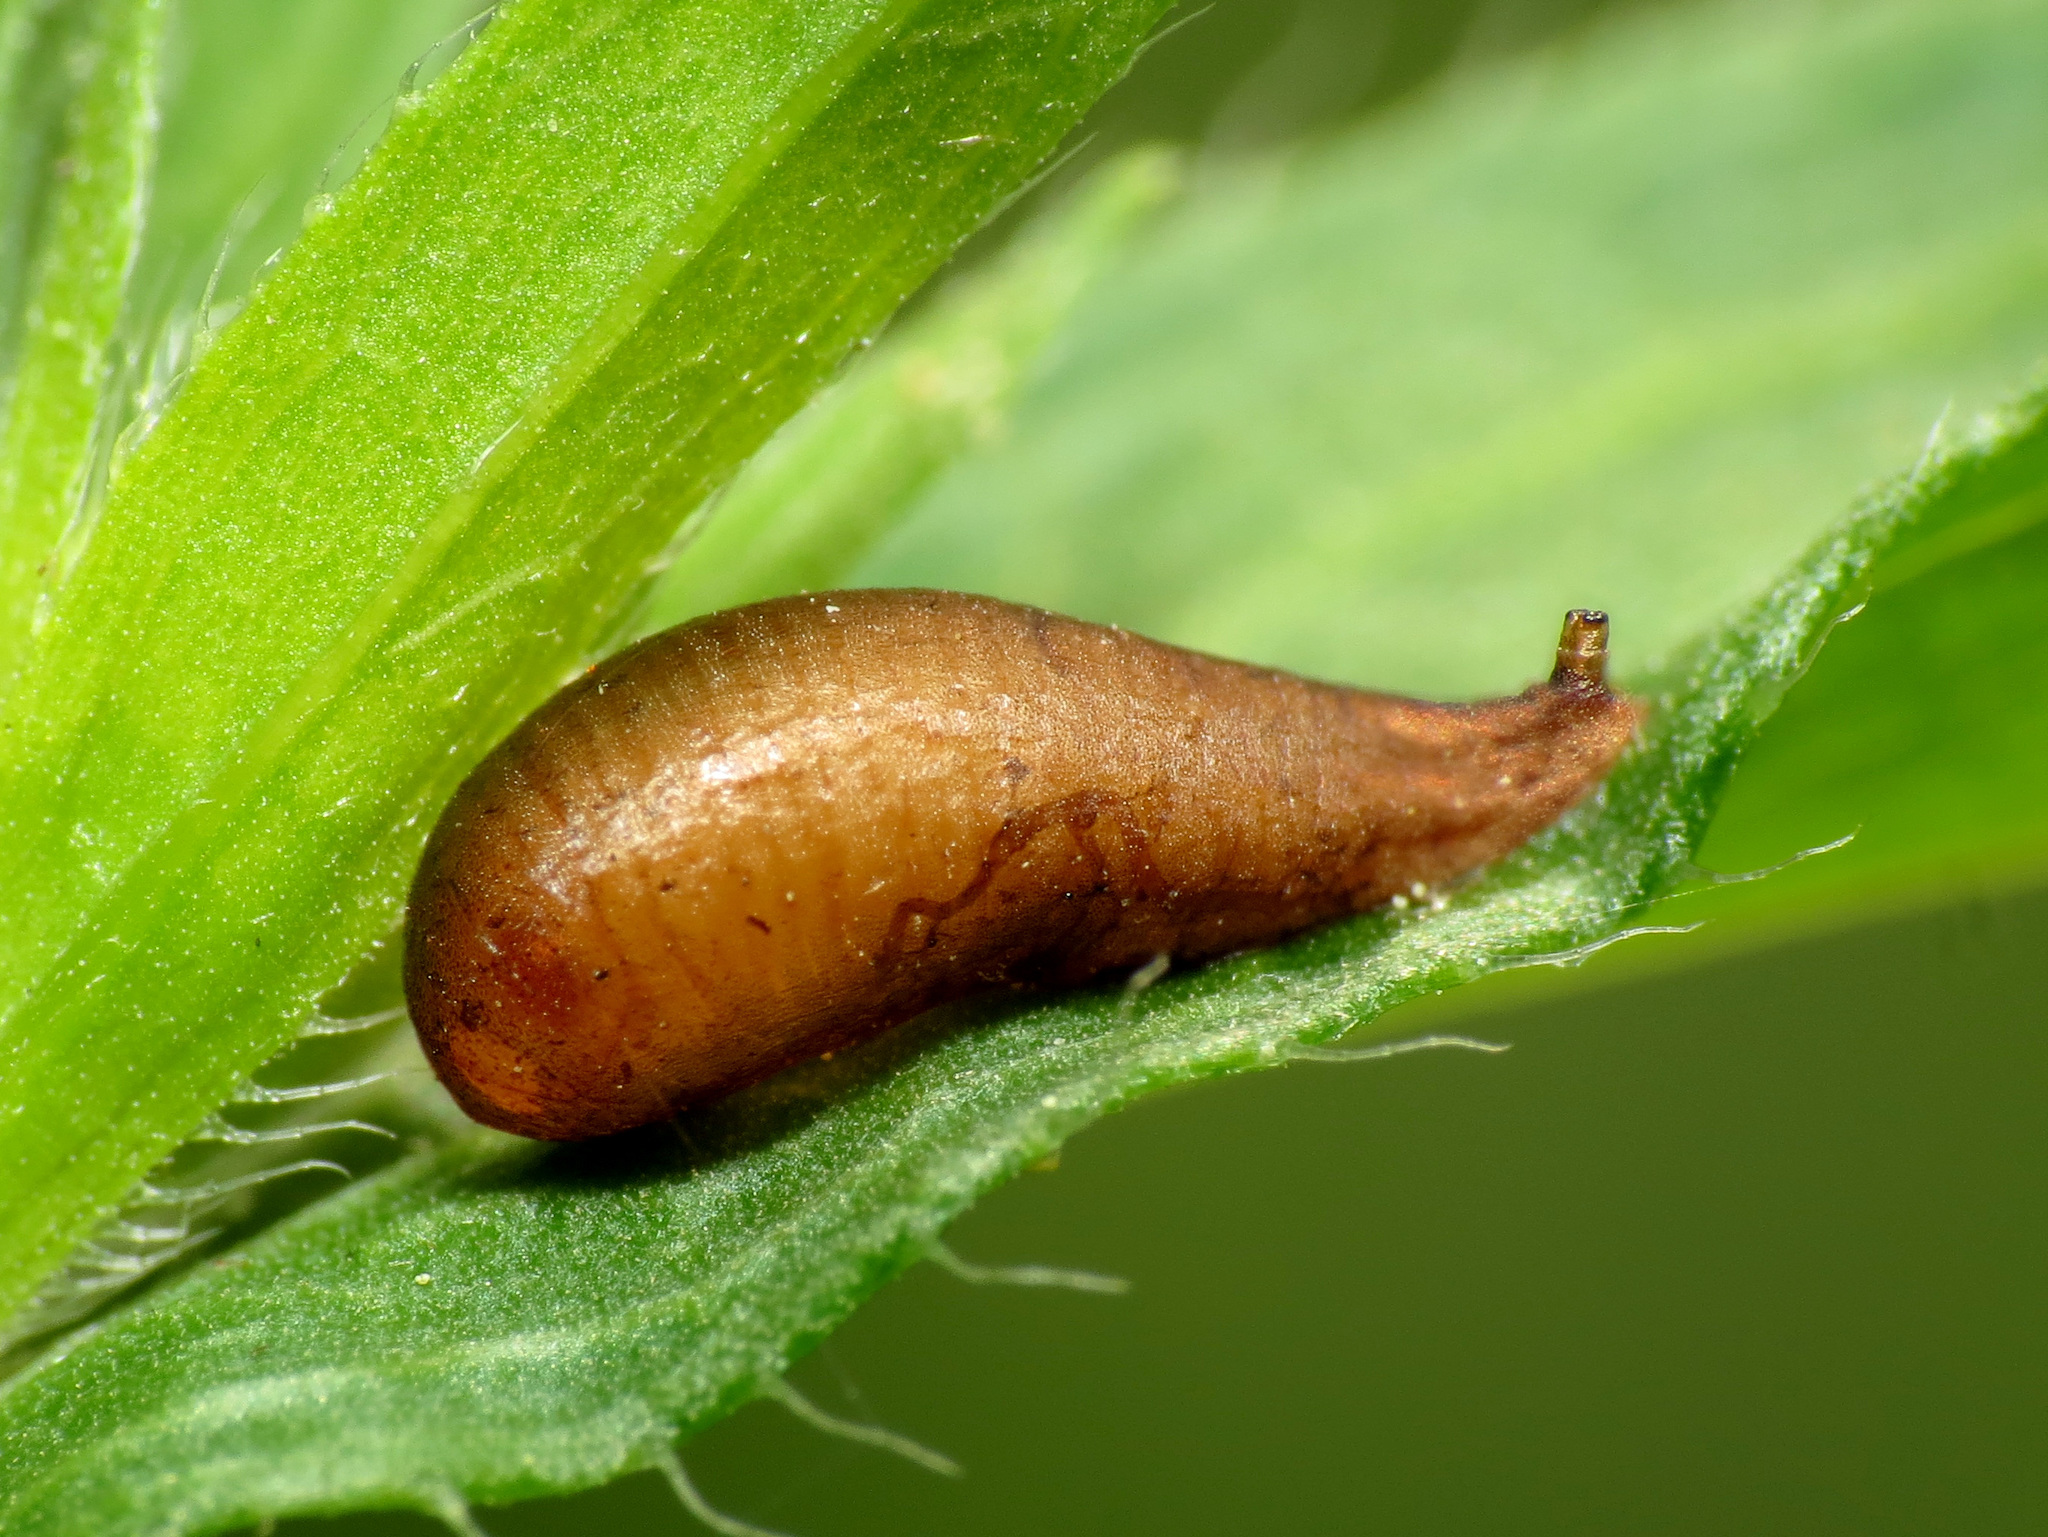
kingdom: Animalia
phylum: Arthropoda
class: Insecta
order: Diptera
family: Syrphidae
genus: Ocyptamus
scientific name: Ocyptamus fuscipennis
